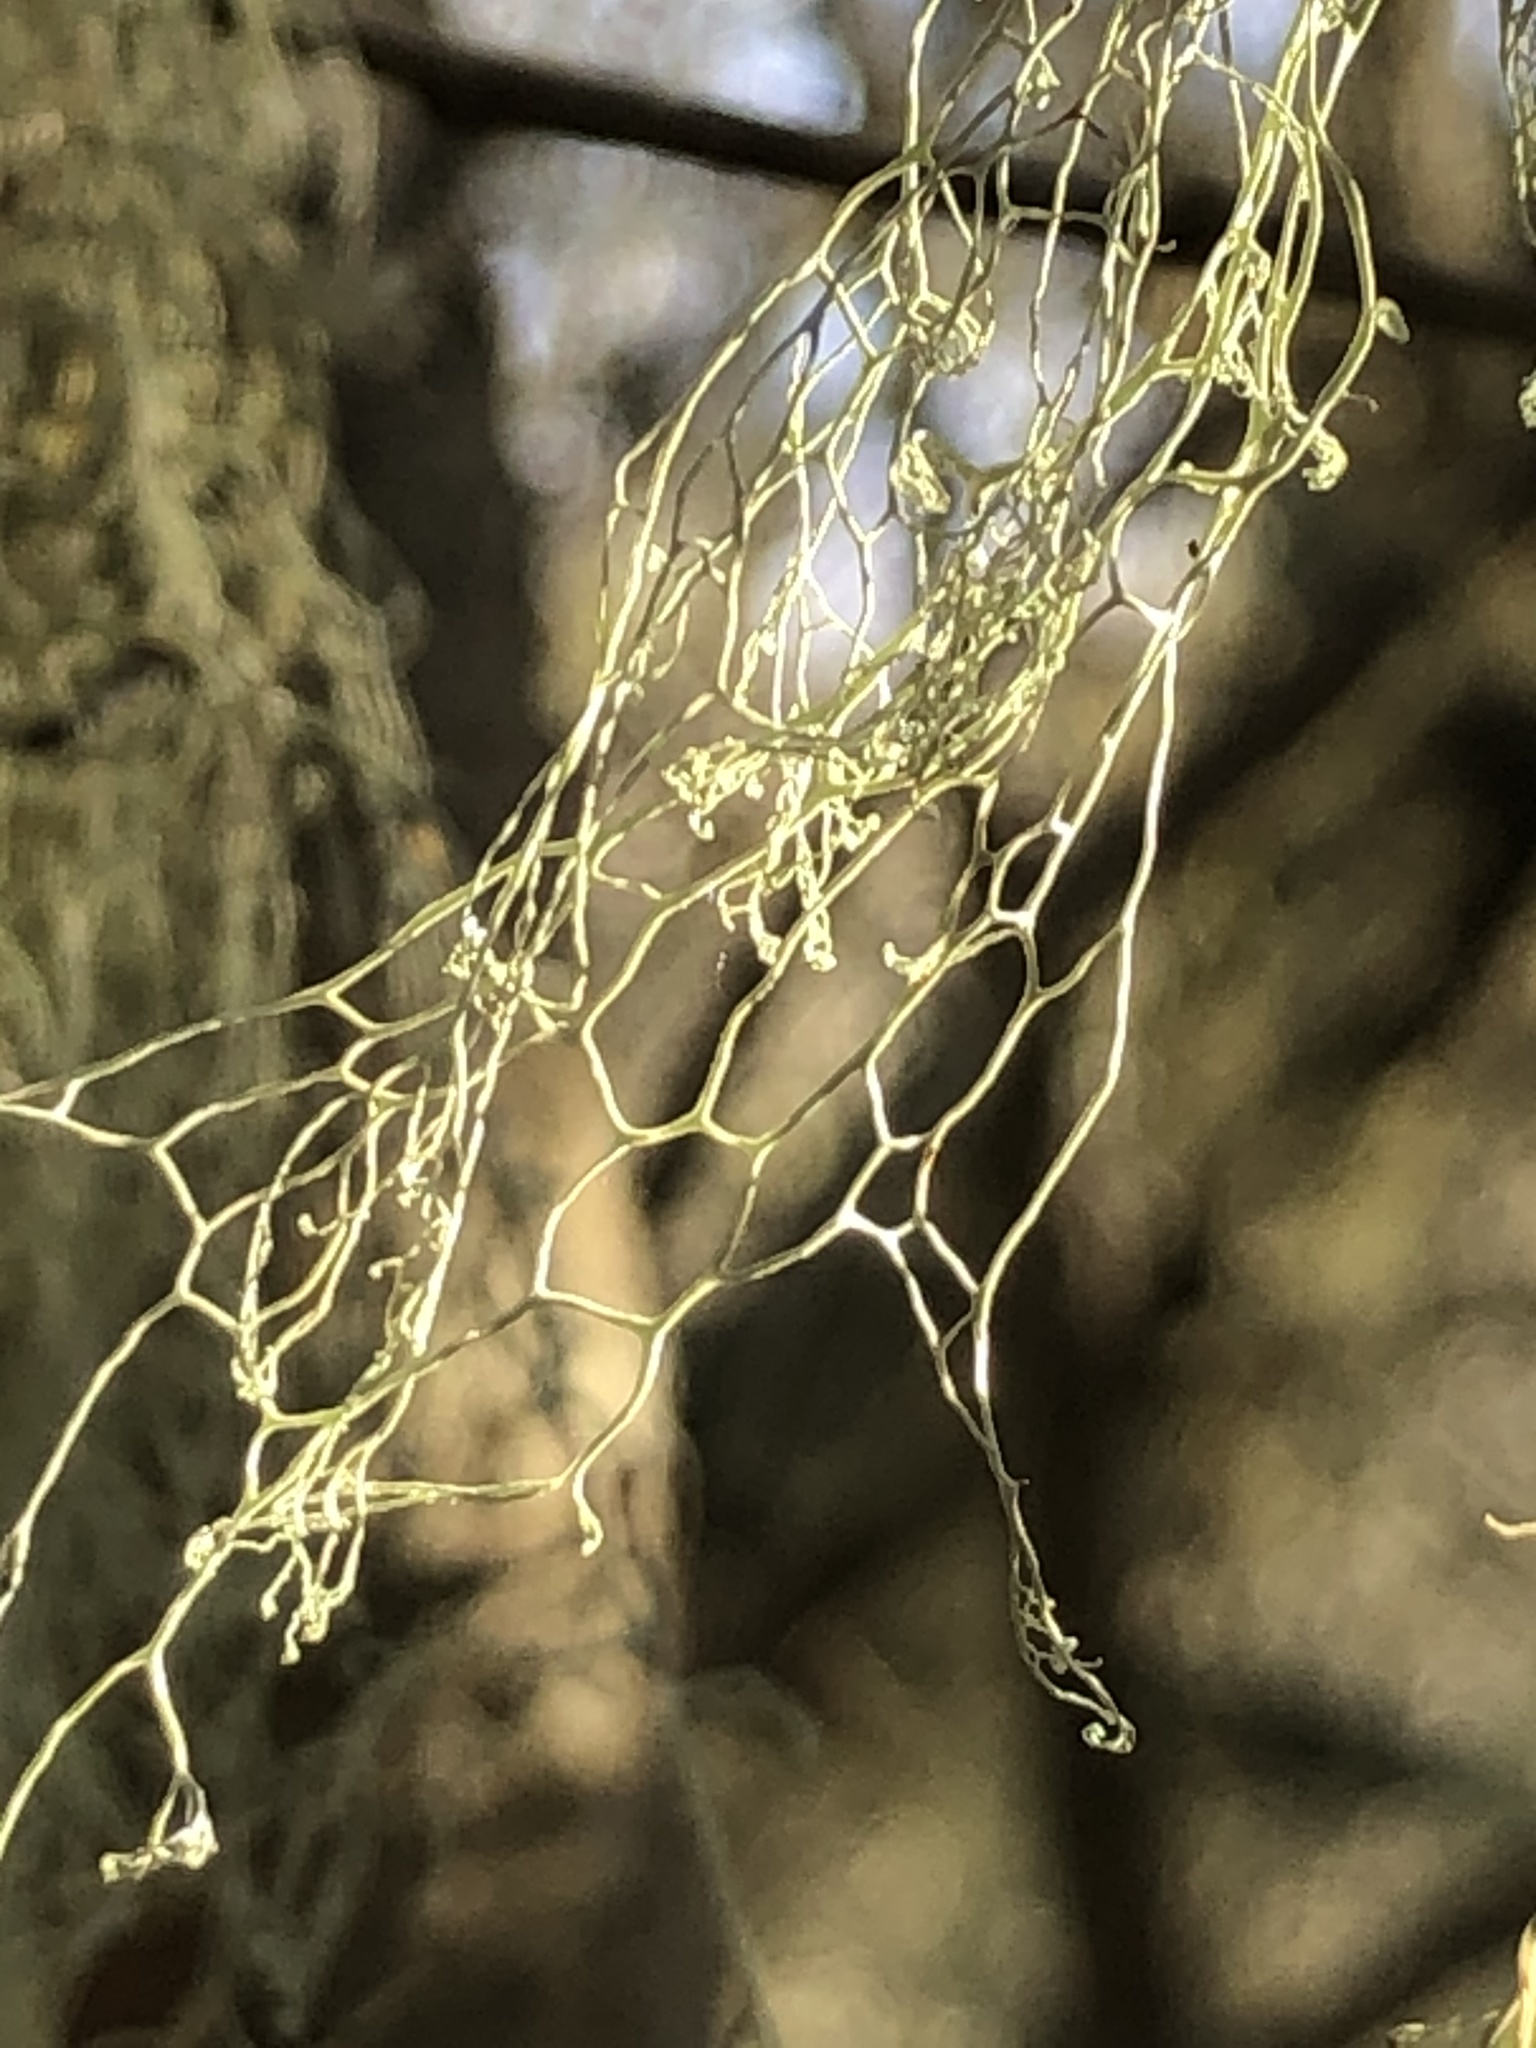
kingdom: Fungi
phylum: Ascomycota
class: Lecanoromycetes
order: Lecanorales
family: Ramalinaceae
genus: Ramalina
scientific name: Ramalina menziesii
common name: Lace lichen
